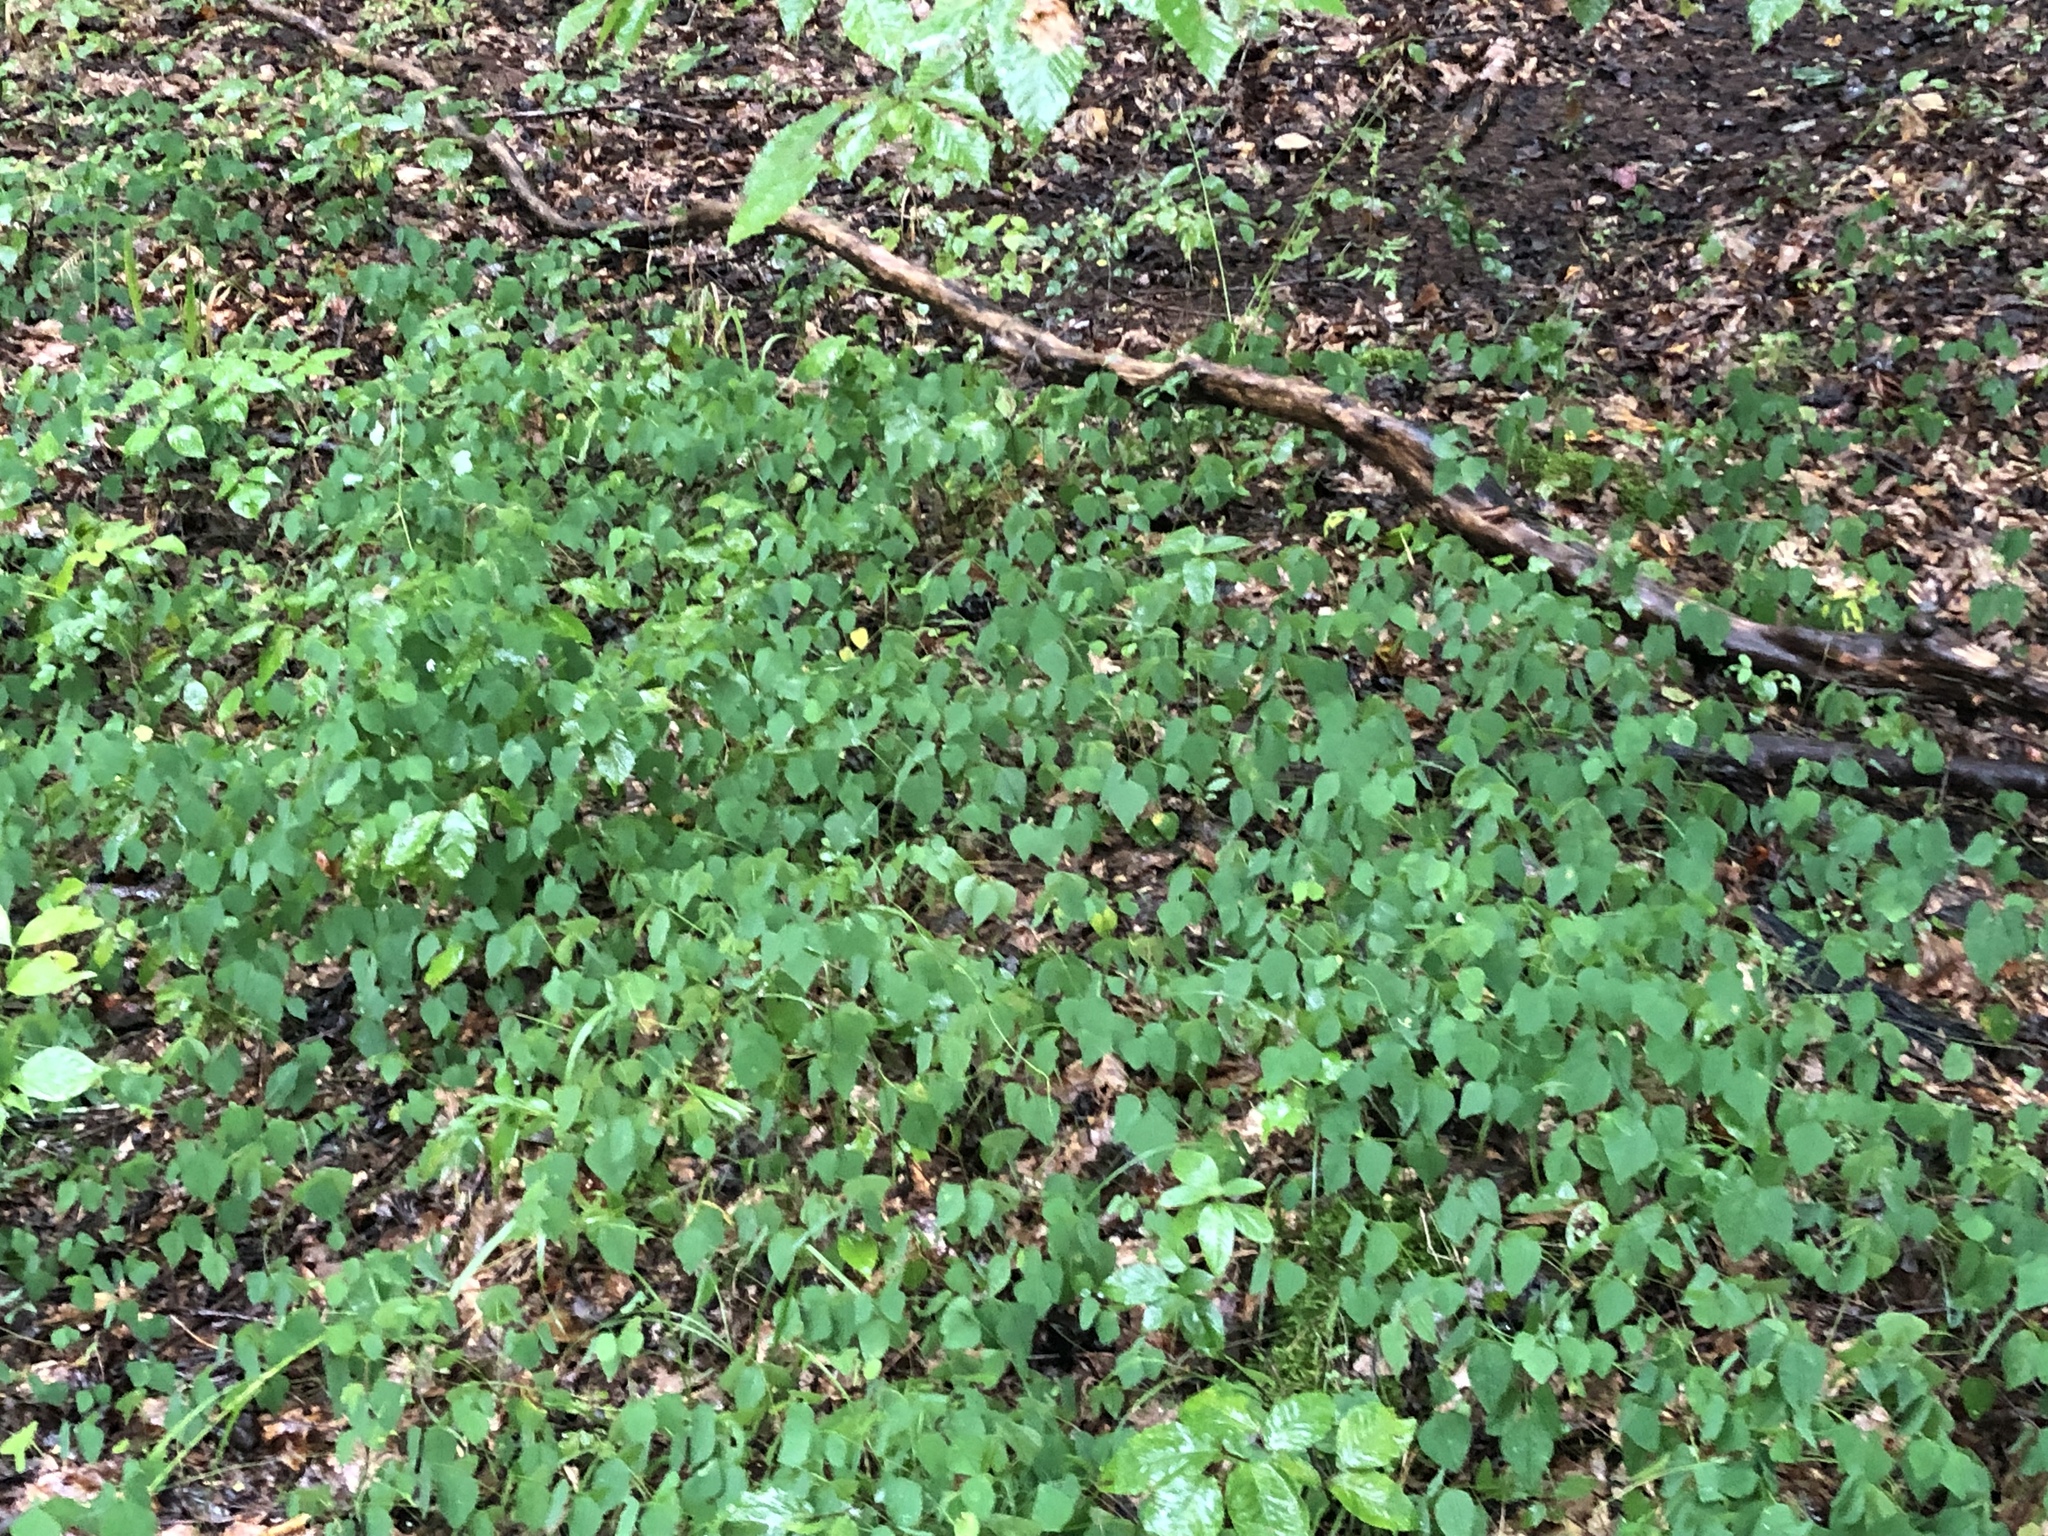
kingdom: Plantae
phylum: Tracheophyta
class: Magnoliopsida
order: Fabales
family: Fabaceae
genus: Amphicarpaea
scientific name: Amphicarpaea bracteata
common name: American hog peanut
